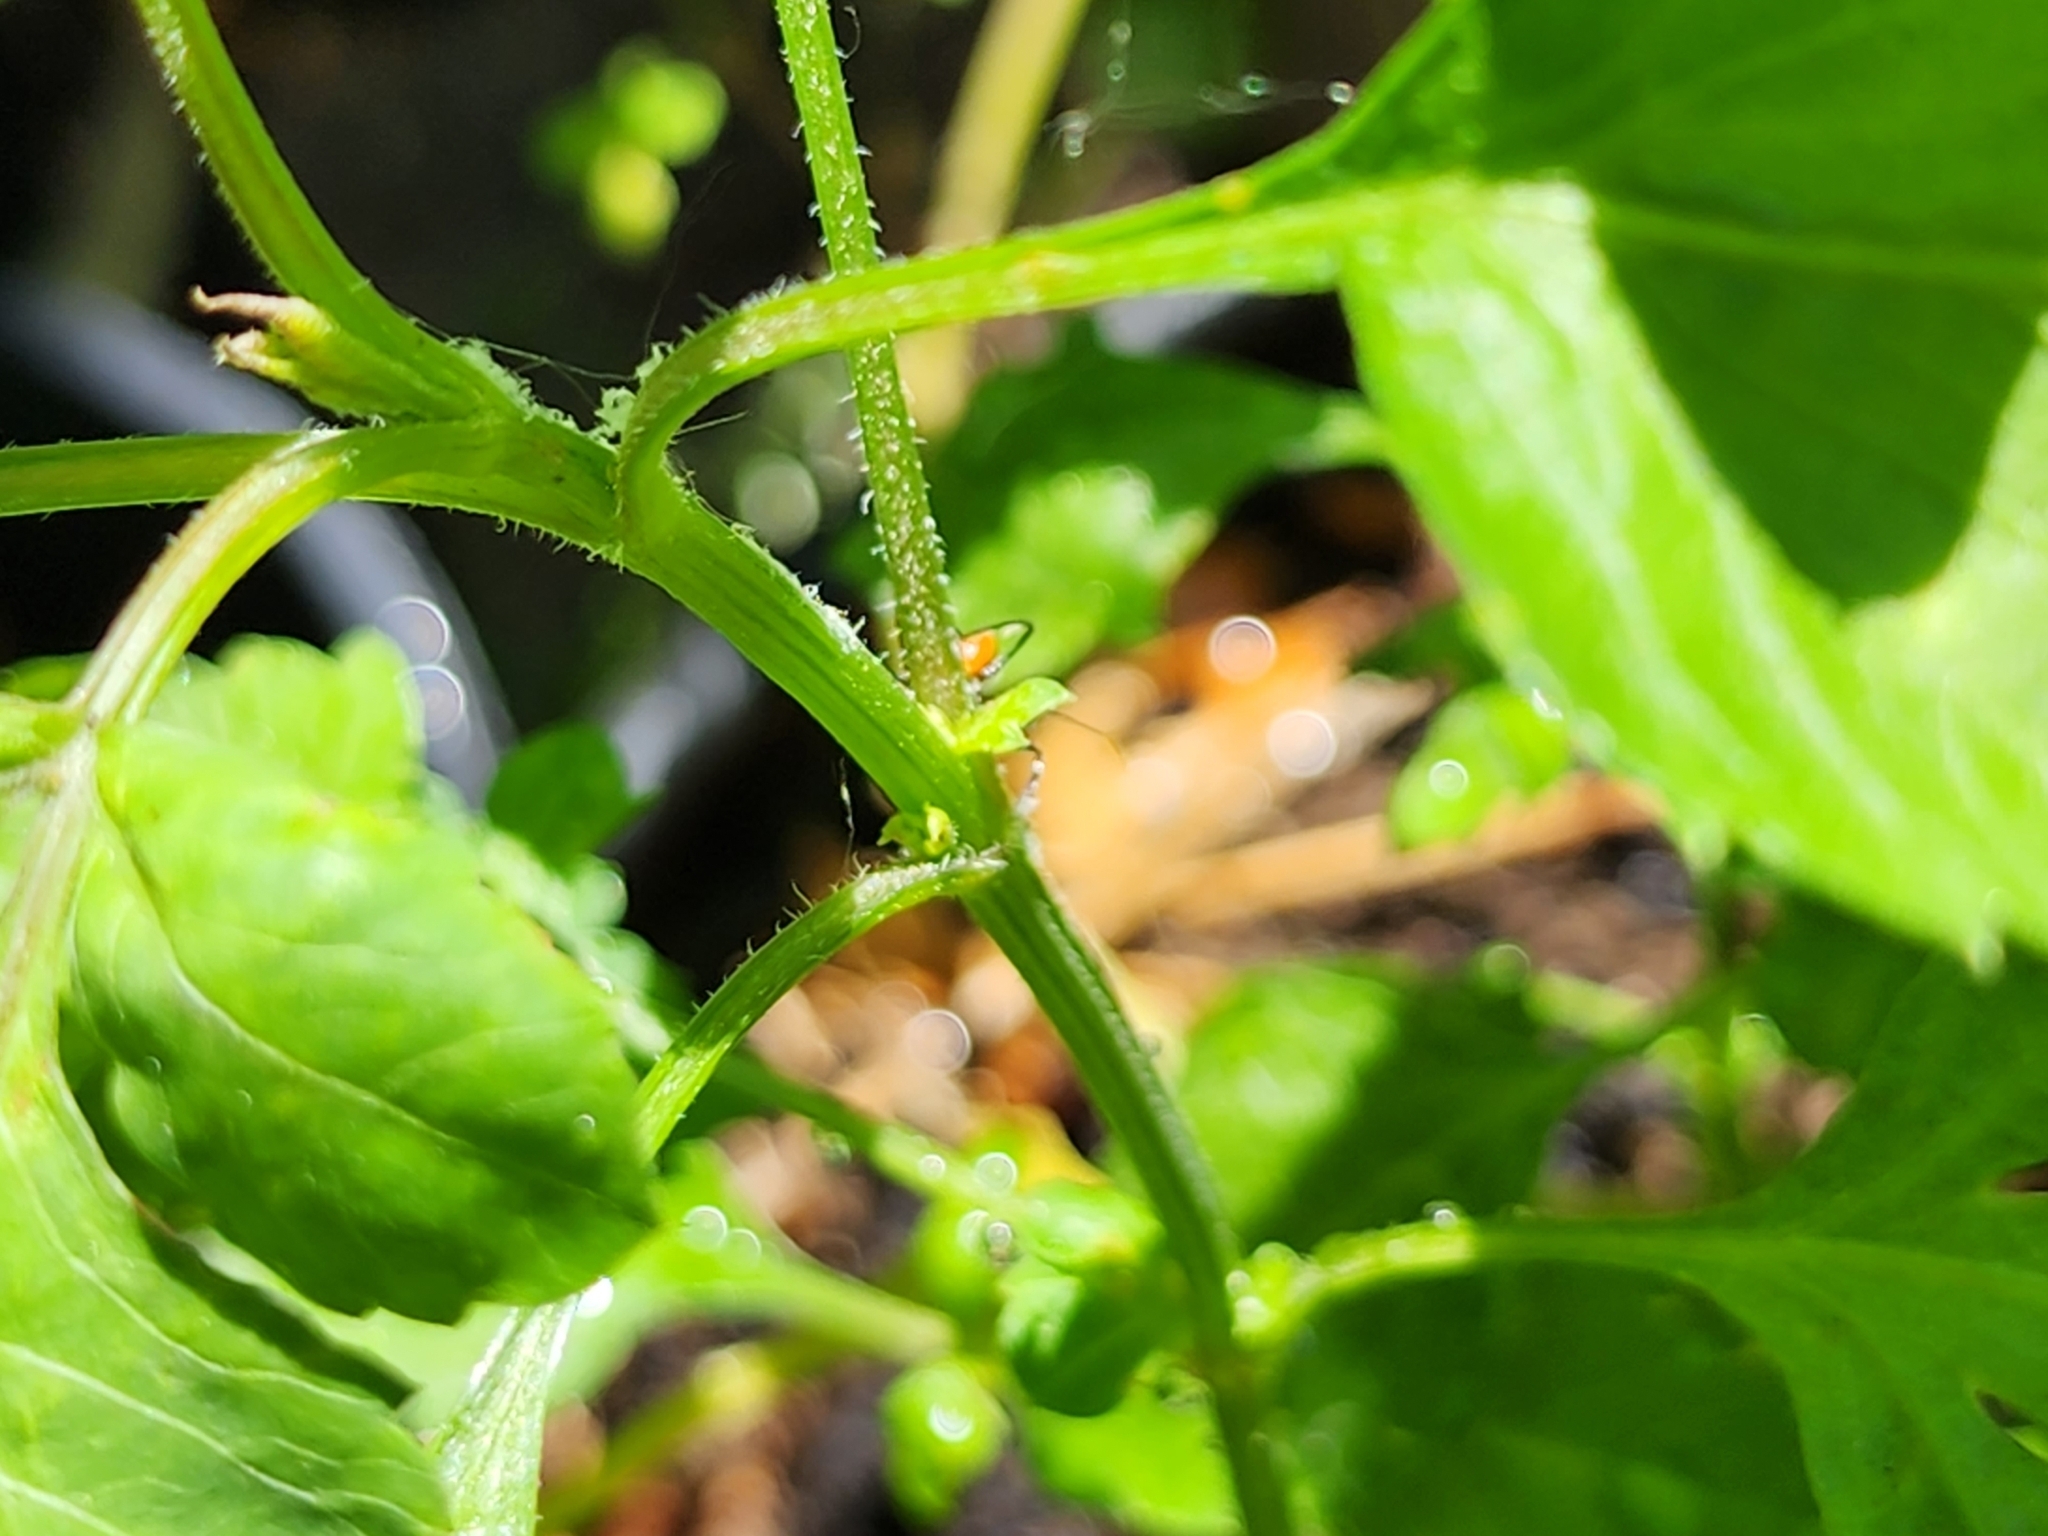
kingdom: Animalia
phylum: Arthropoda
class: Insecta
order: Hemiptera
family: Reduviidae
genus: Arilus
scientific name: Arilus cristatus
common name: North american wheel bug
